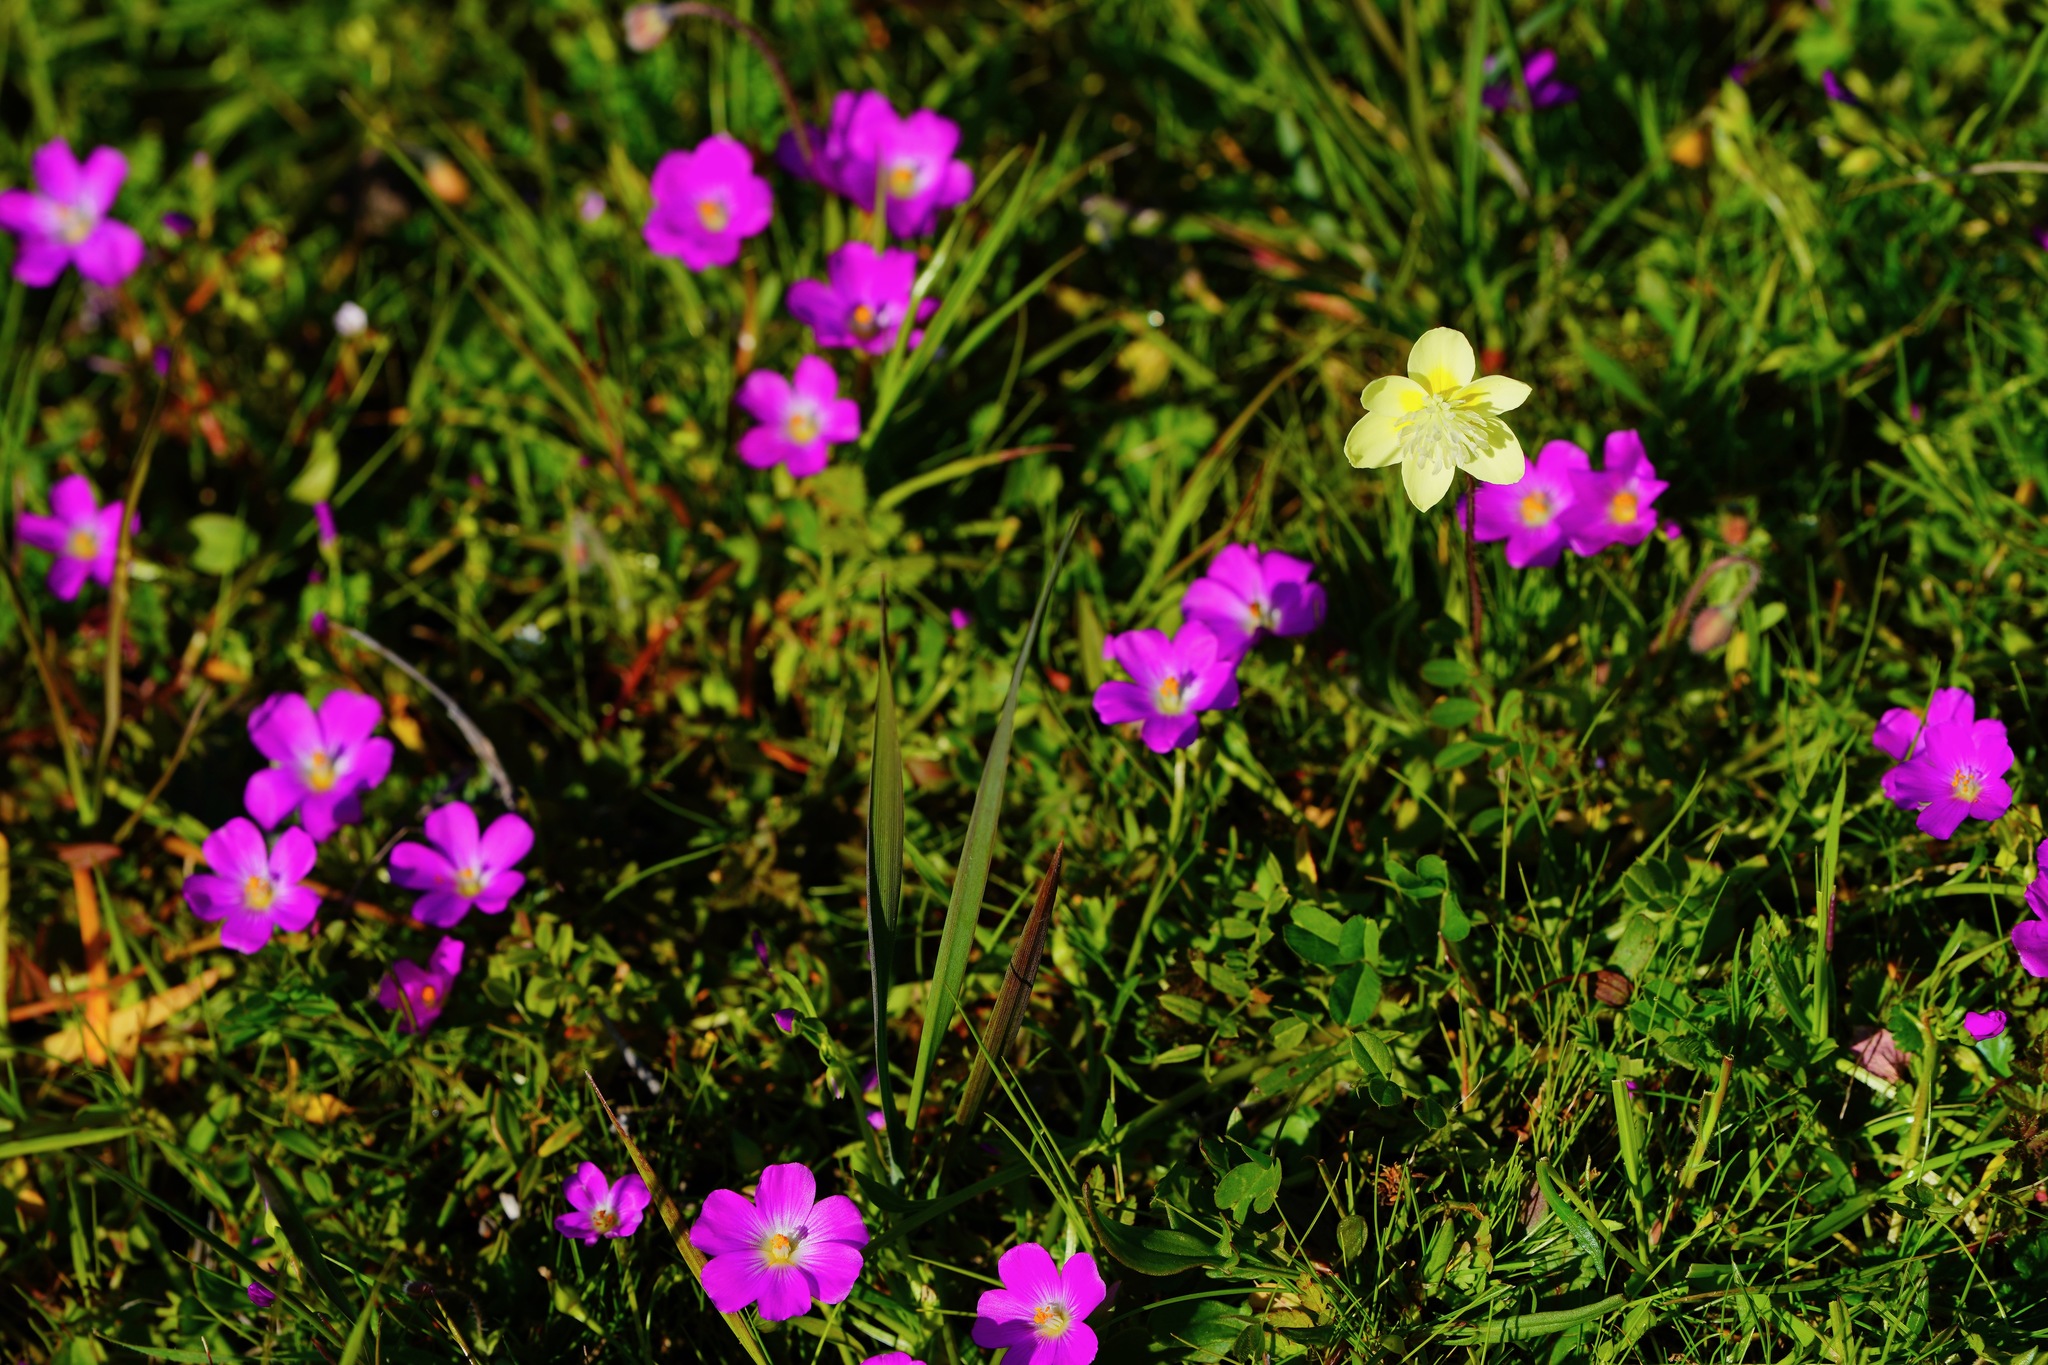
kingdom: Plantae
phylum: Tracheophyta
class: Magnoliopsida
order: Ranunculales
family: Papaveraceae
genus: Platystemon
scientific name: Platystemon californicus
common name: Cream-cups
